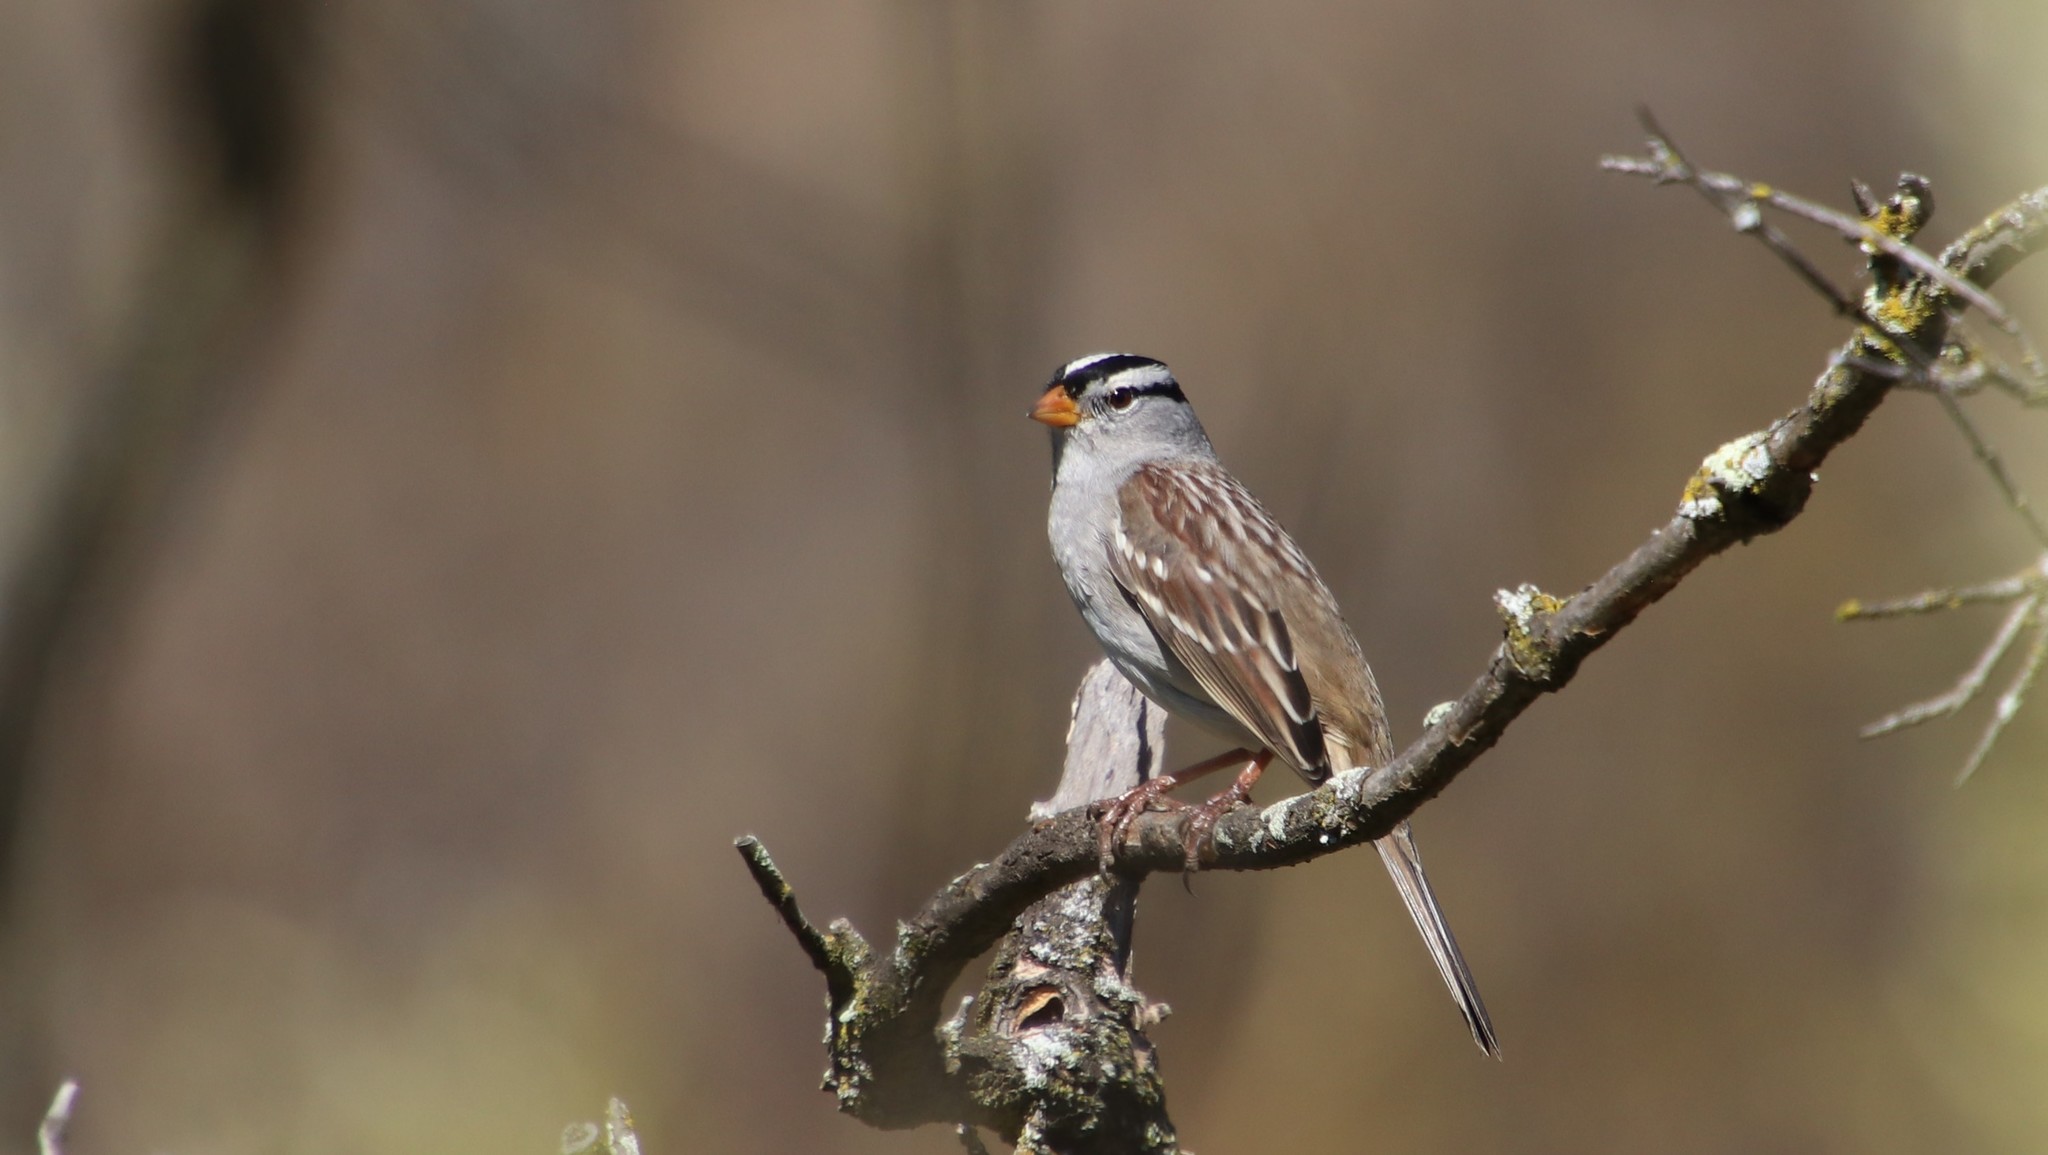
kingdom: Animalia
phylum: Chordata
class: Aves
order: Passeriformes
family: Passerellidae
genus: Zonotrichia
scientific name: Zonotrichia leucophrys
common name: White-crowned sparrow
